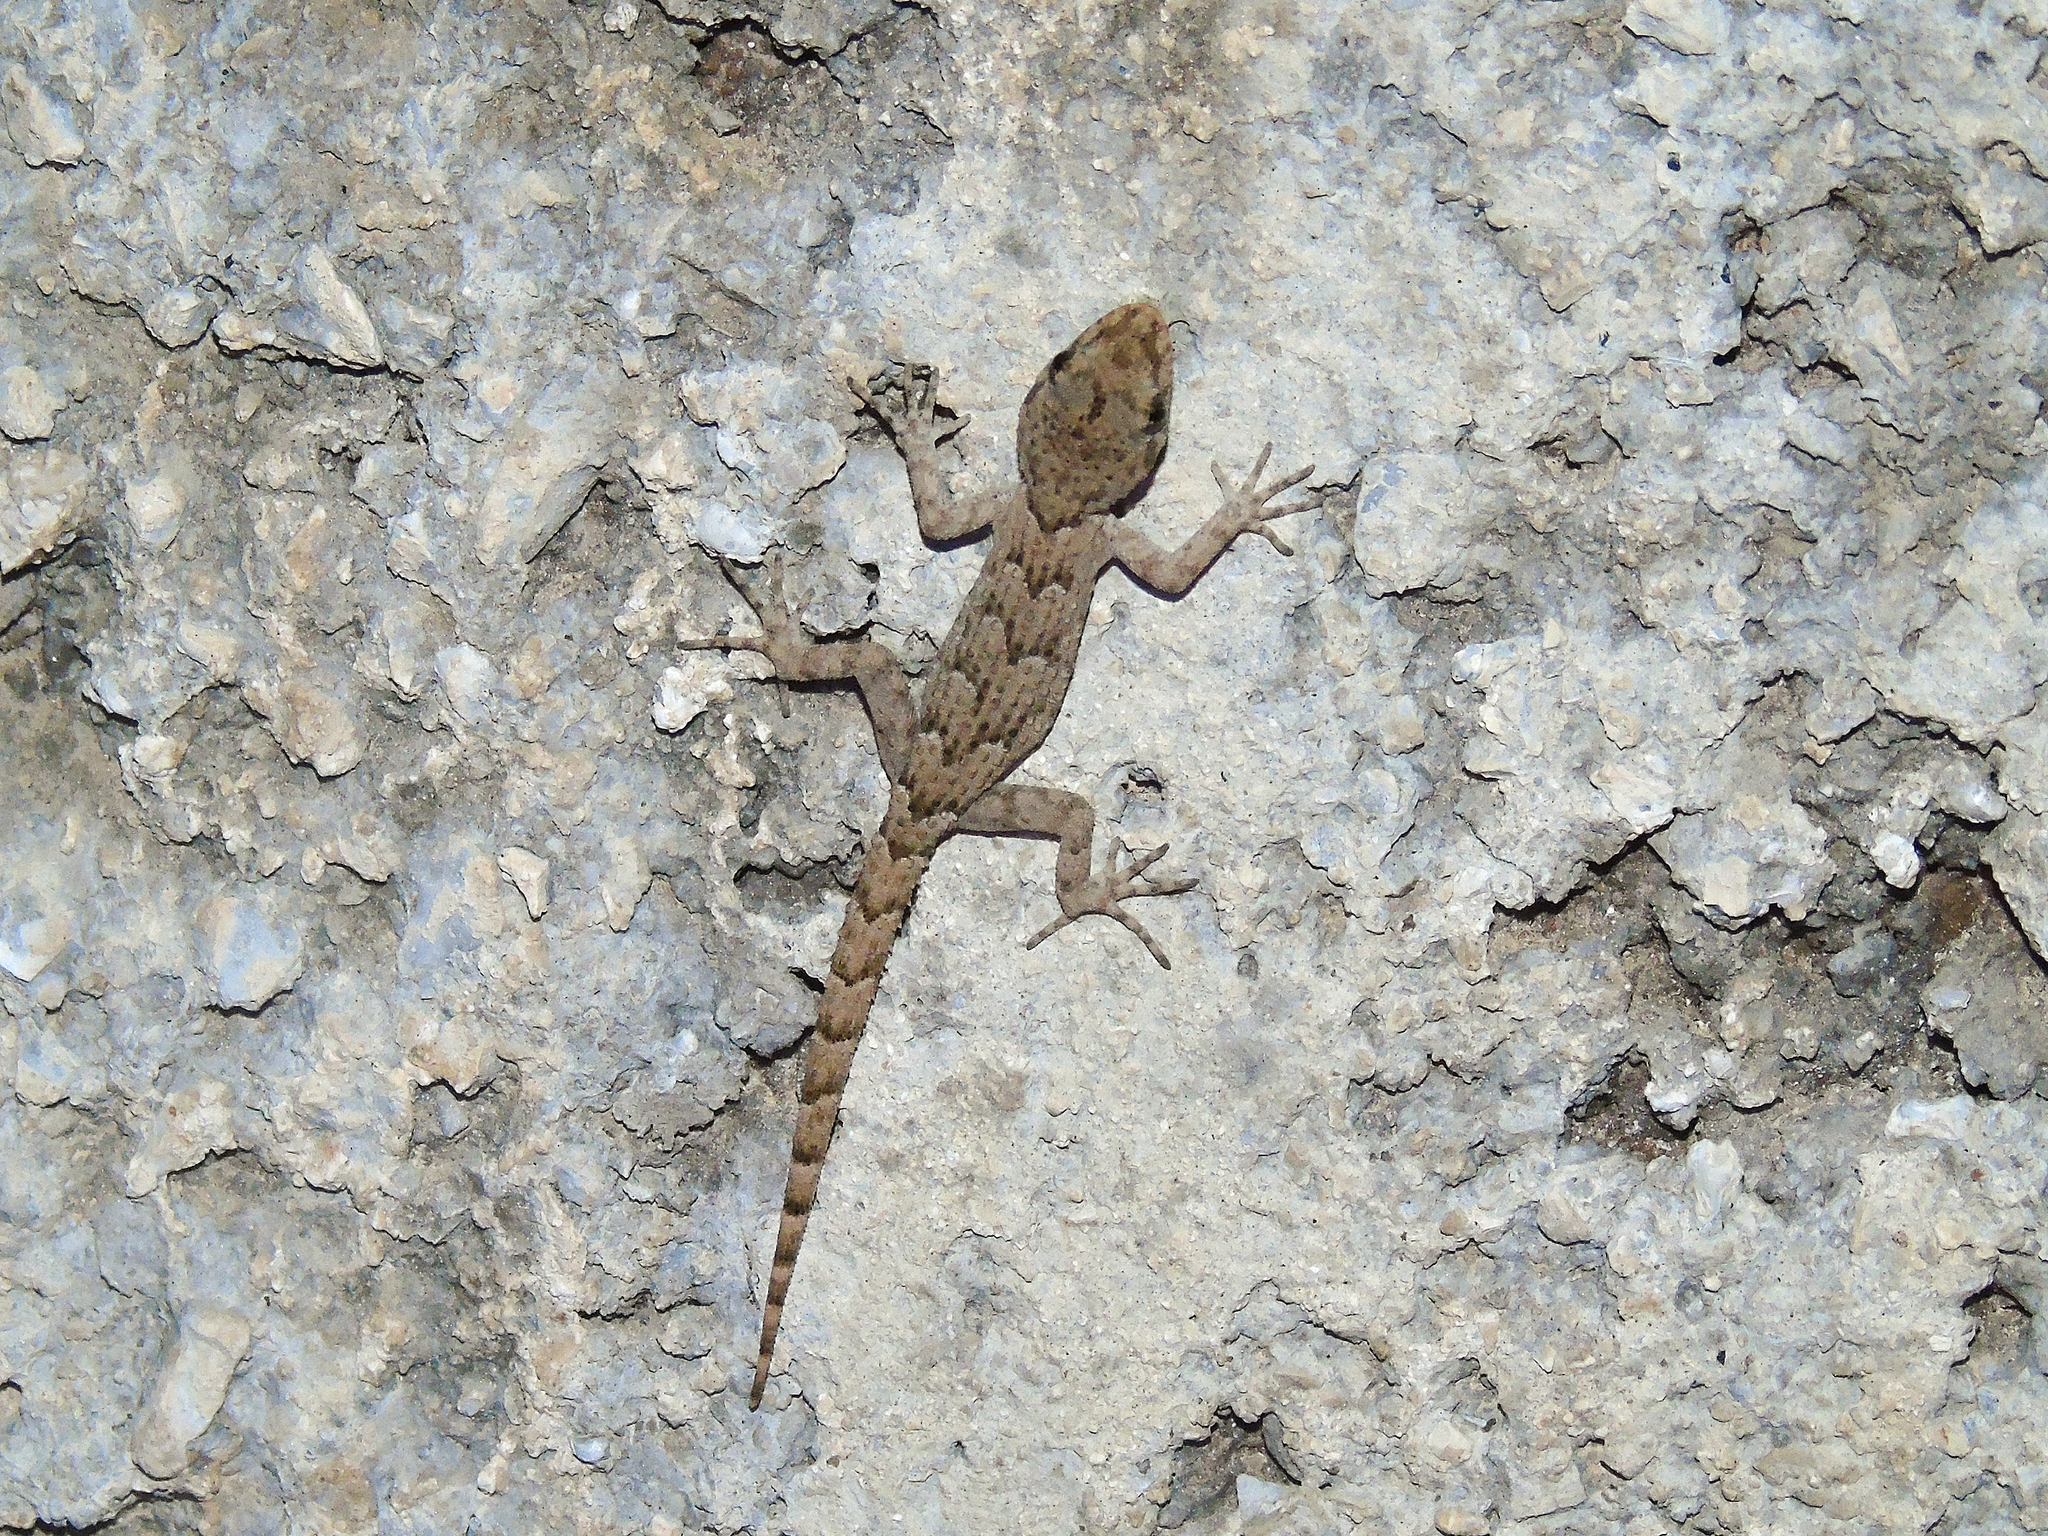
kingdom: Animalia
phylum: Chordata
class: Squamata
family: Gekkonidae
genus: Mediodactylus
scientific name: Mediodactylus kotschyi
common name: Kotschy's gecko
